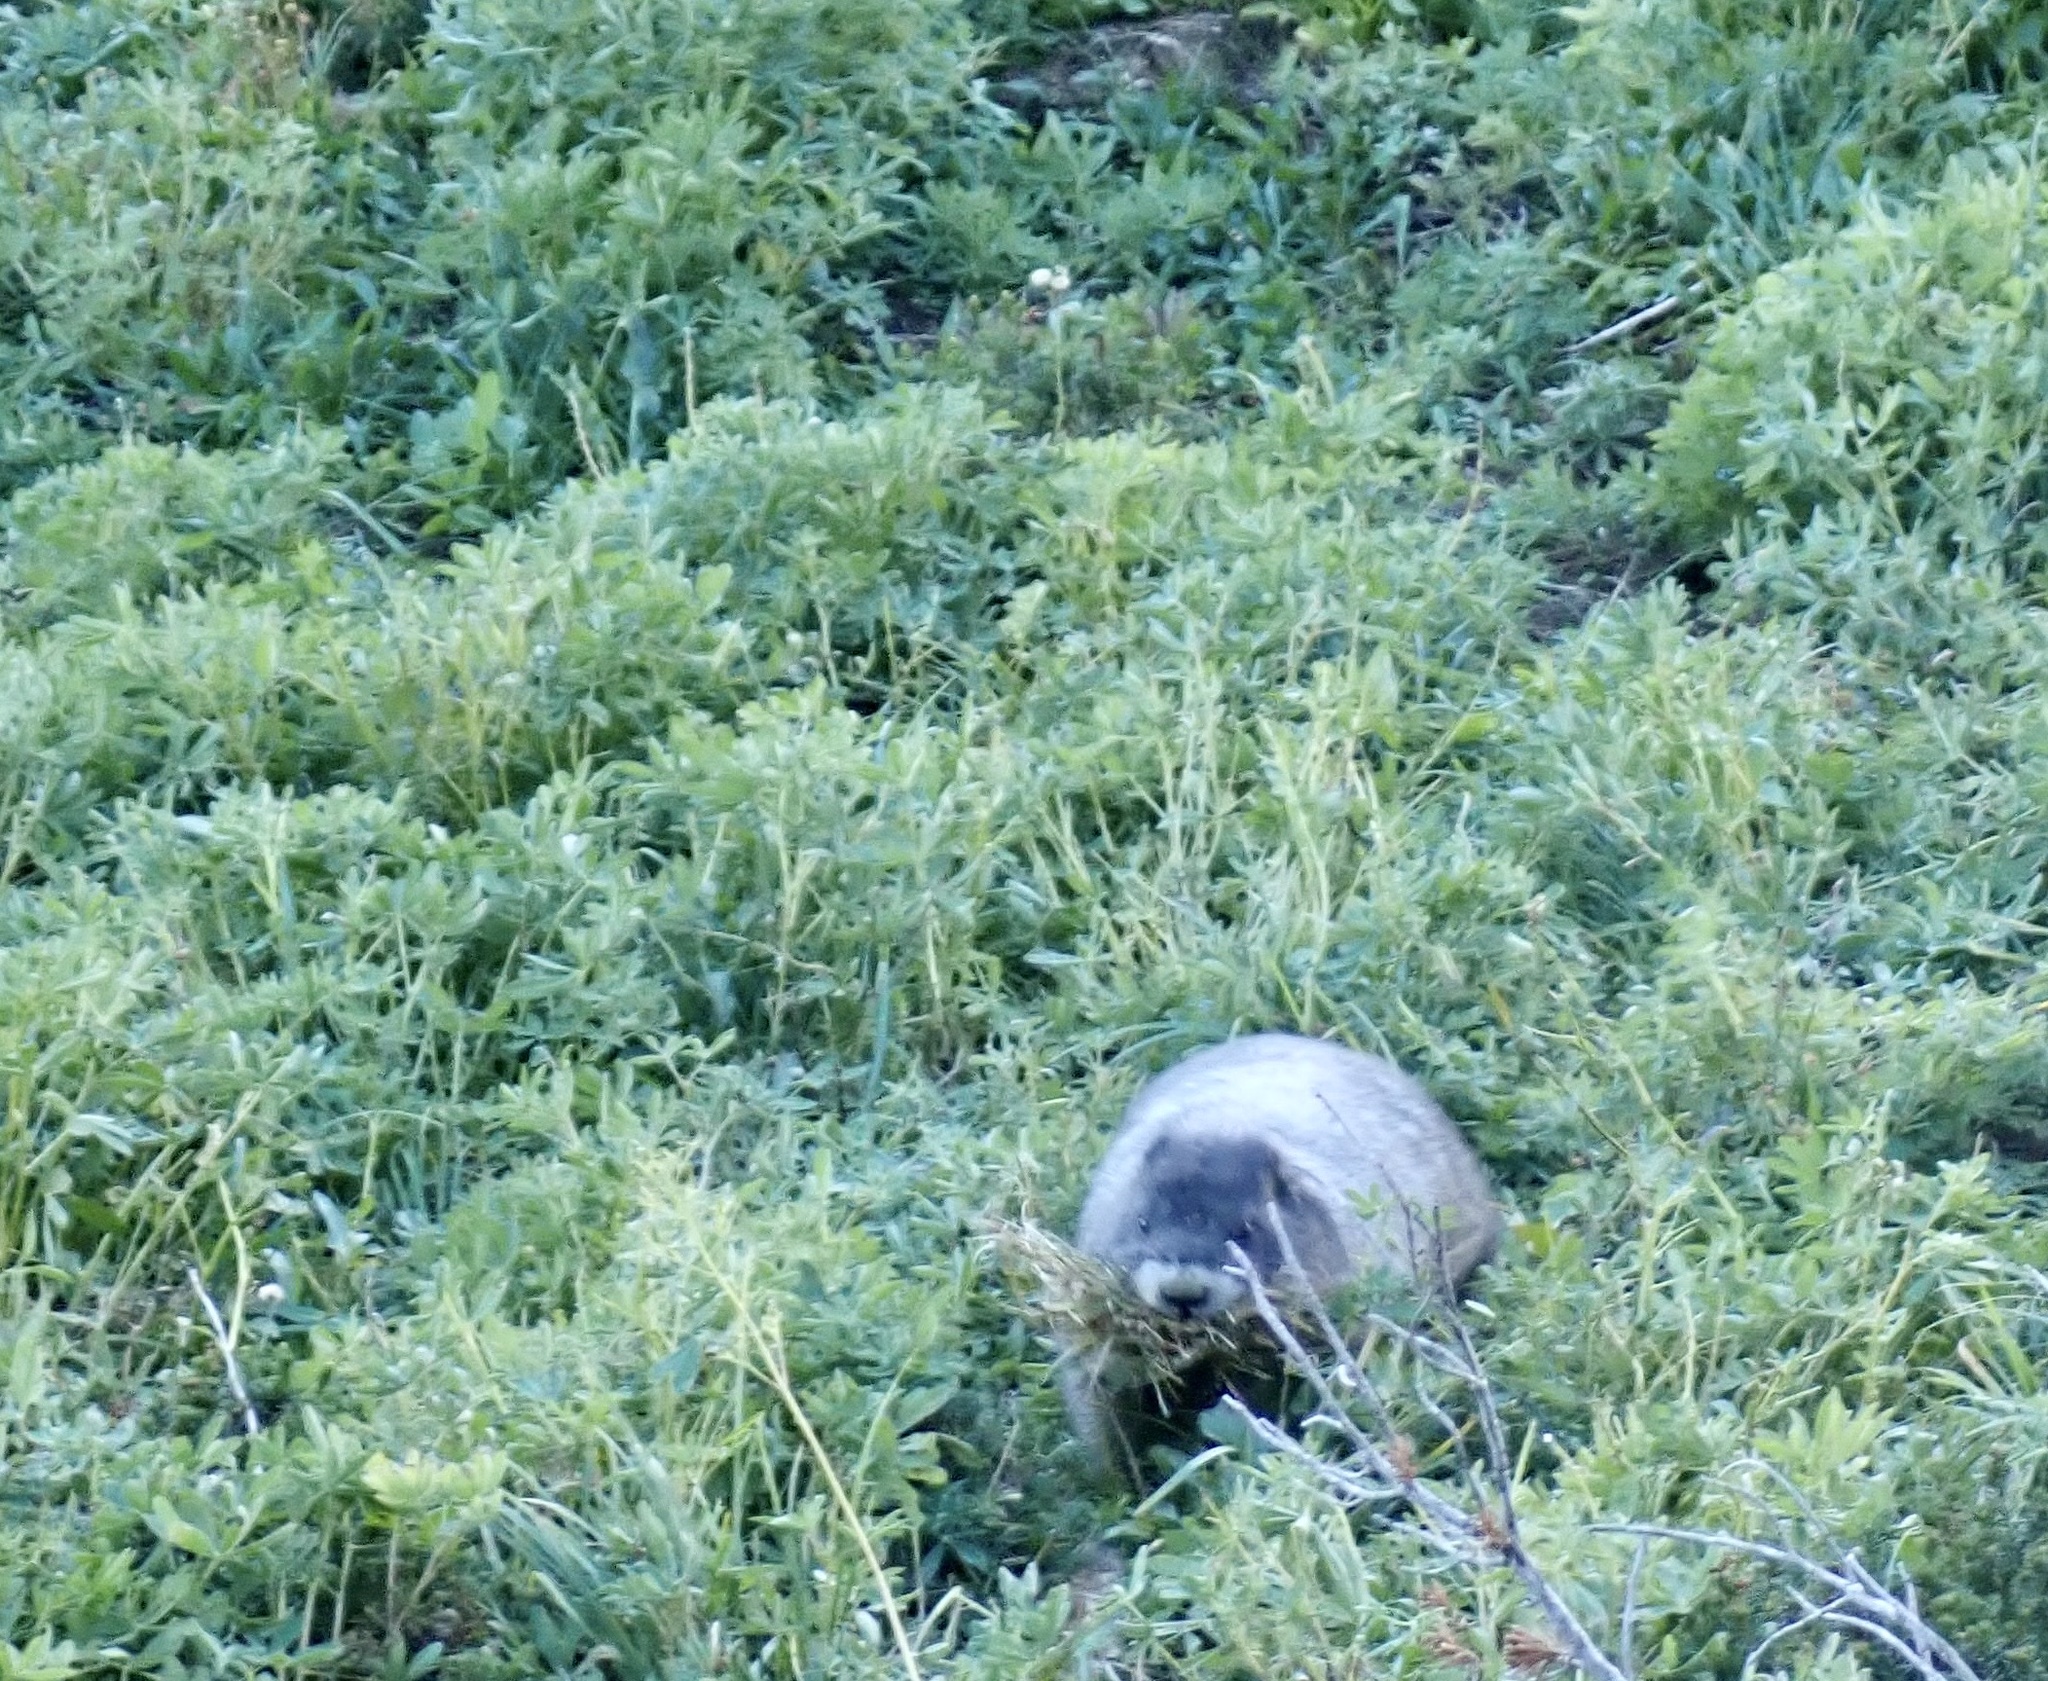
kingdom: Animalia
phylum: Chordata
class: Mammalia
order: Rodentia
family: Sciuridae
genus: Marmota
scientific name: Marmota caligata
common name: Hoary marmot
